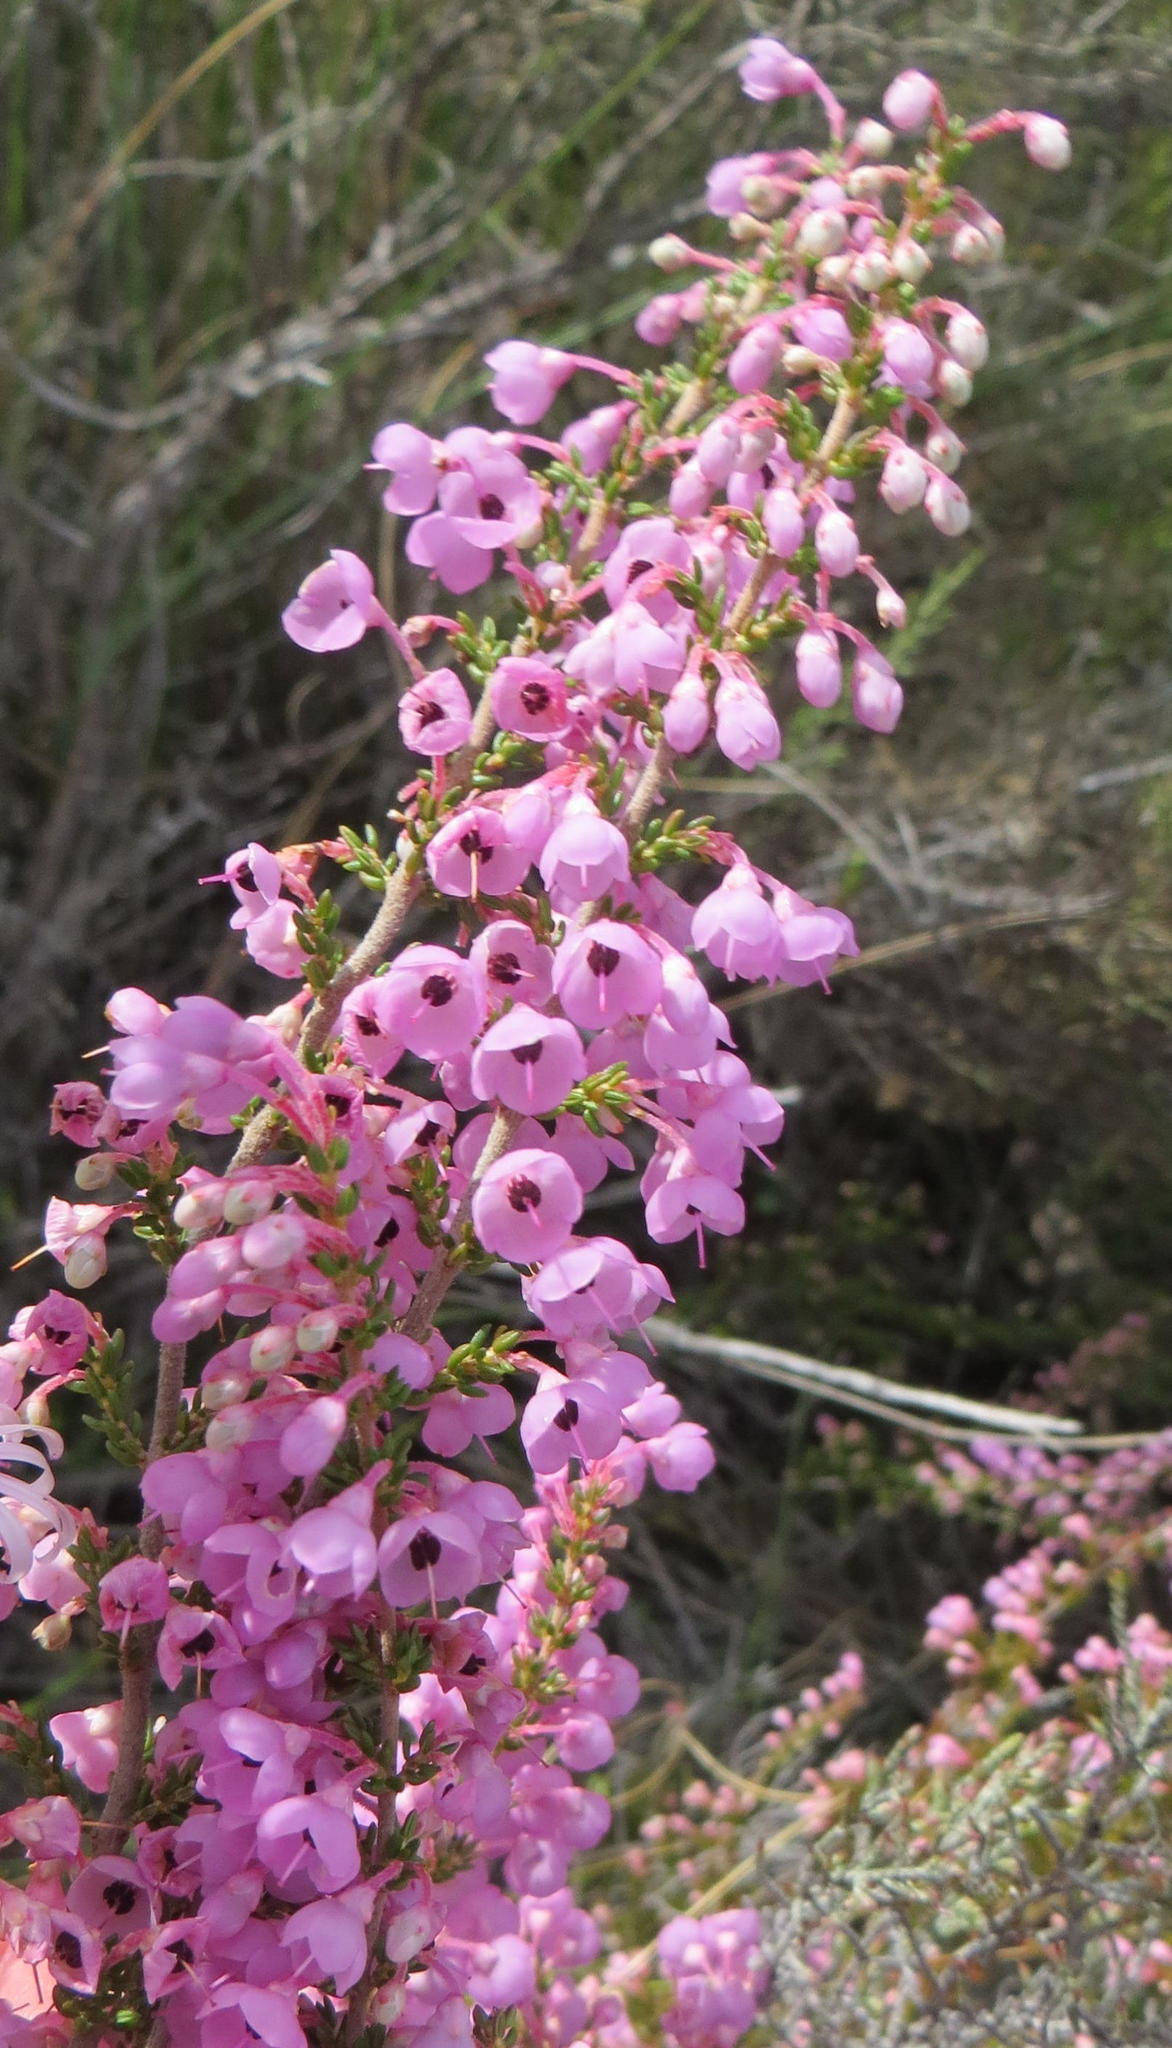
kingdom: Plantae
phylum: Tracheophyta
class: Magnoliopsida
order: Ericales
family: Ericaceae
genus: Erica
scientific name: Erica melanthera
